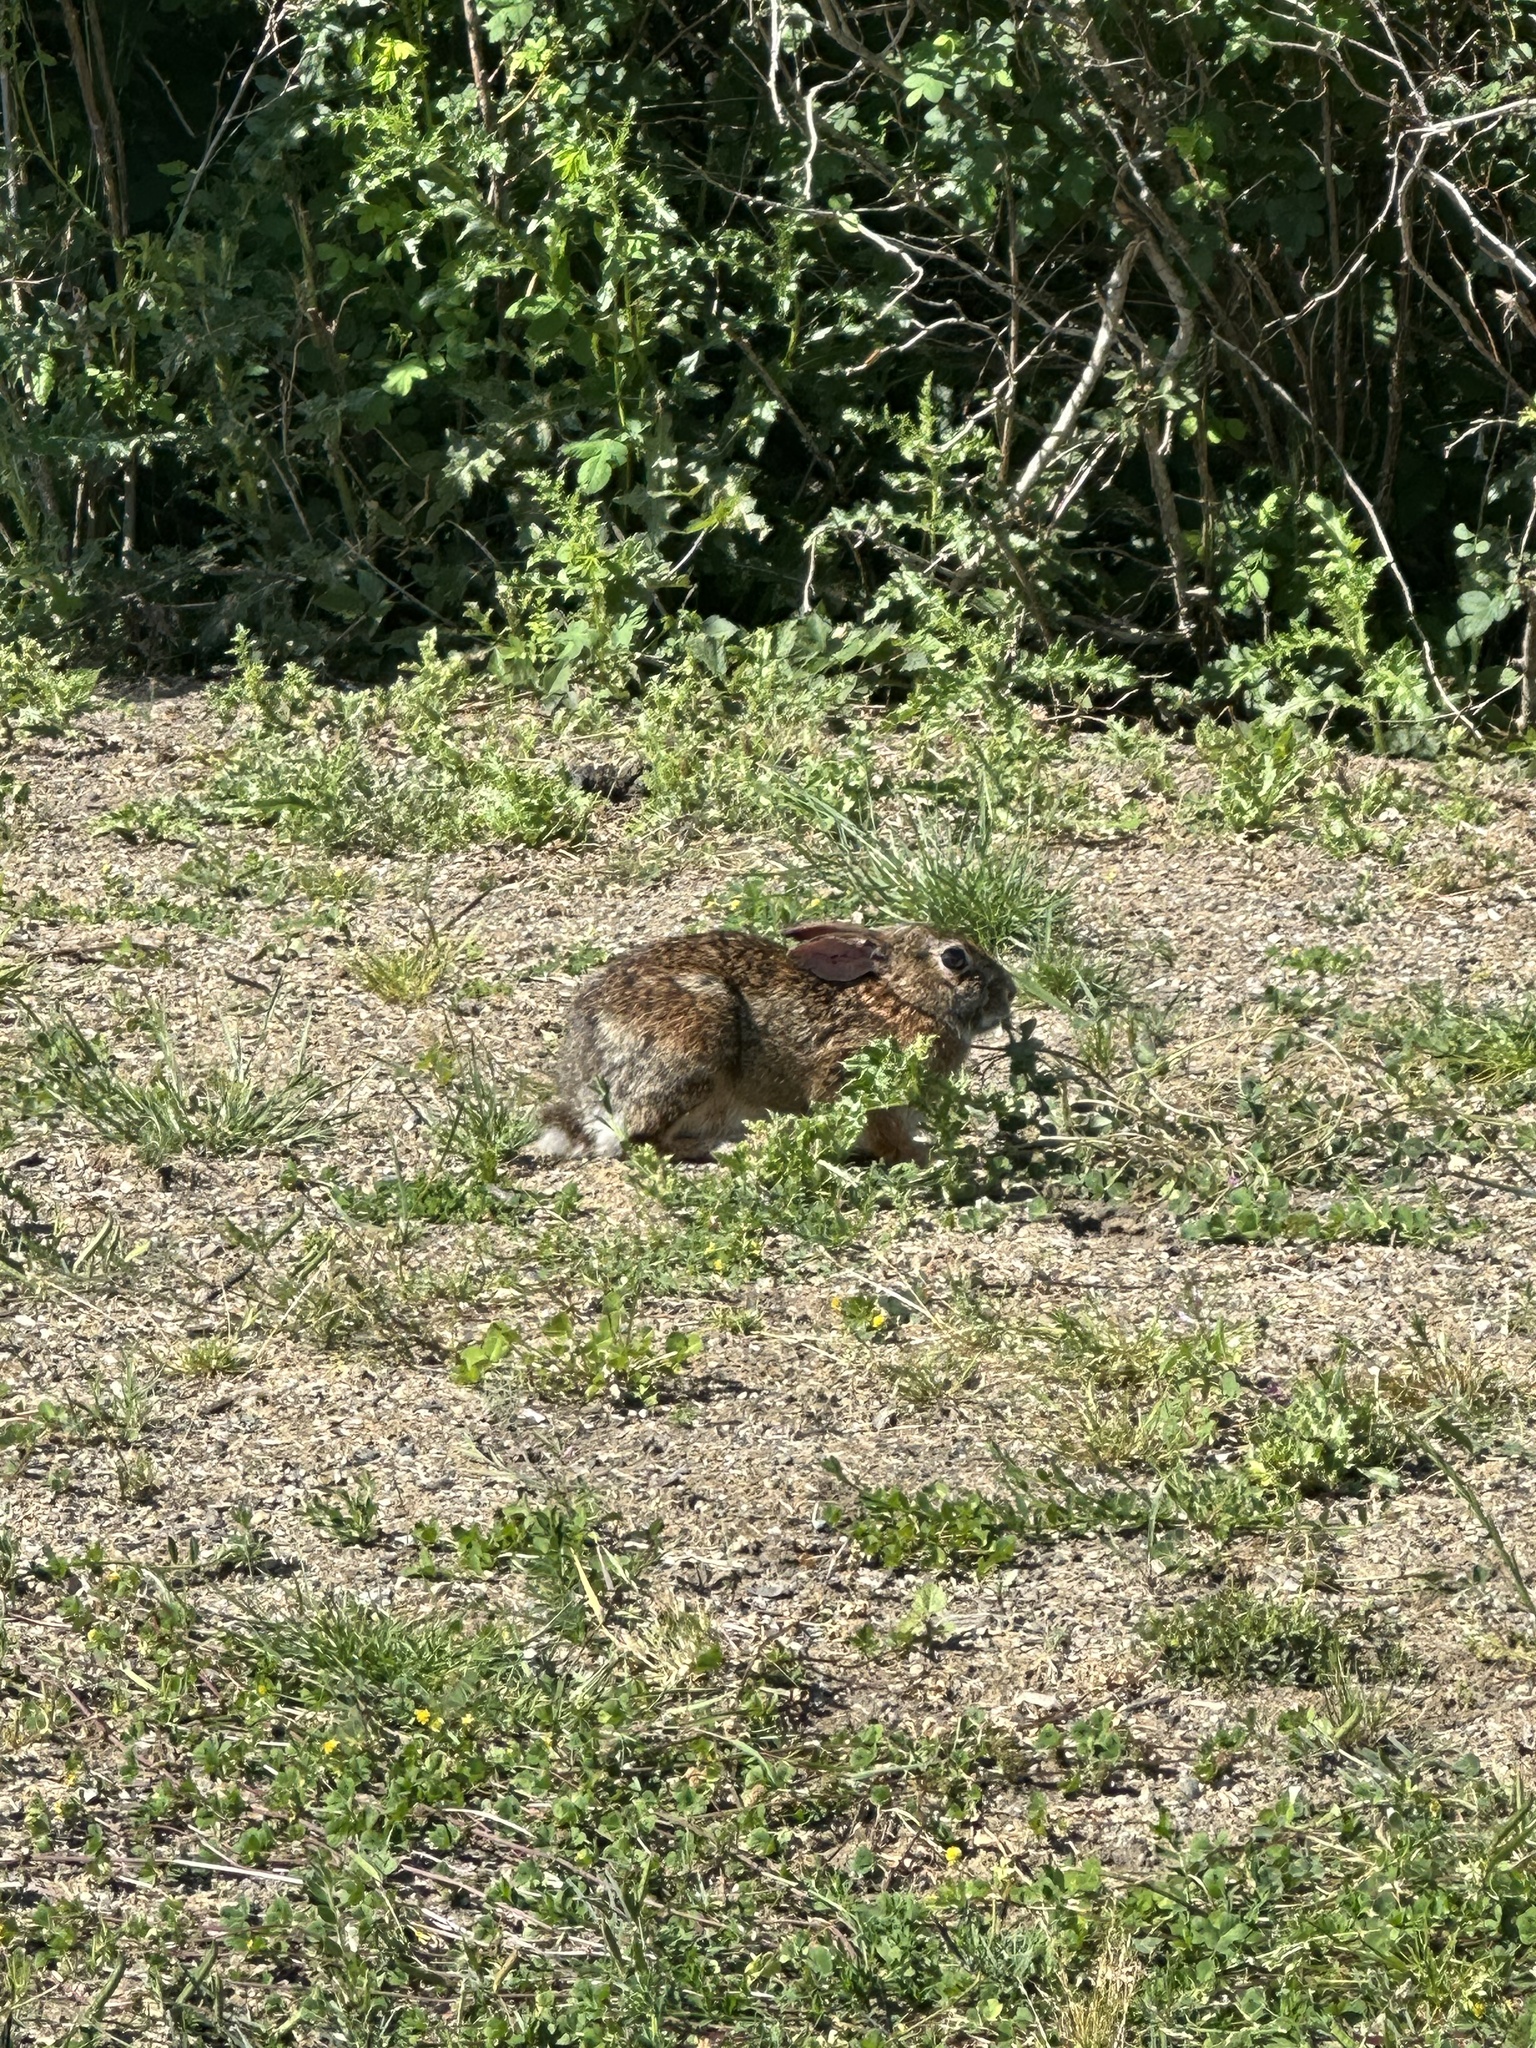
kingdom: Animalia
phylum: Chordata
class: Mammalia
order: Lagomorpha
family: Leporidae
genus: Sylvilagus
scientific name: Sylvilagus floridanus
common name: Eastern cottontail
